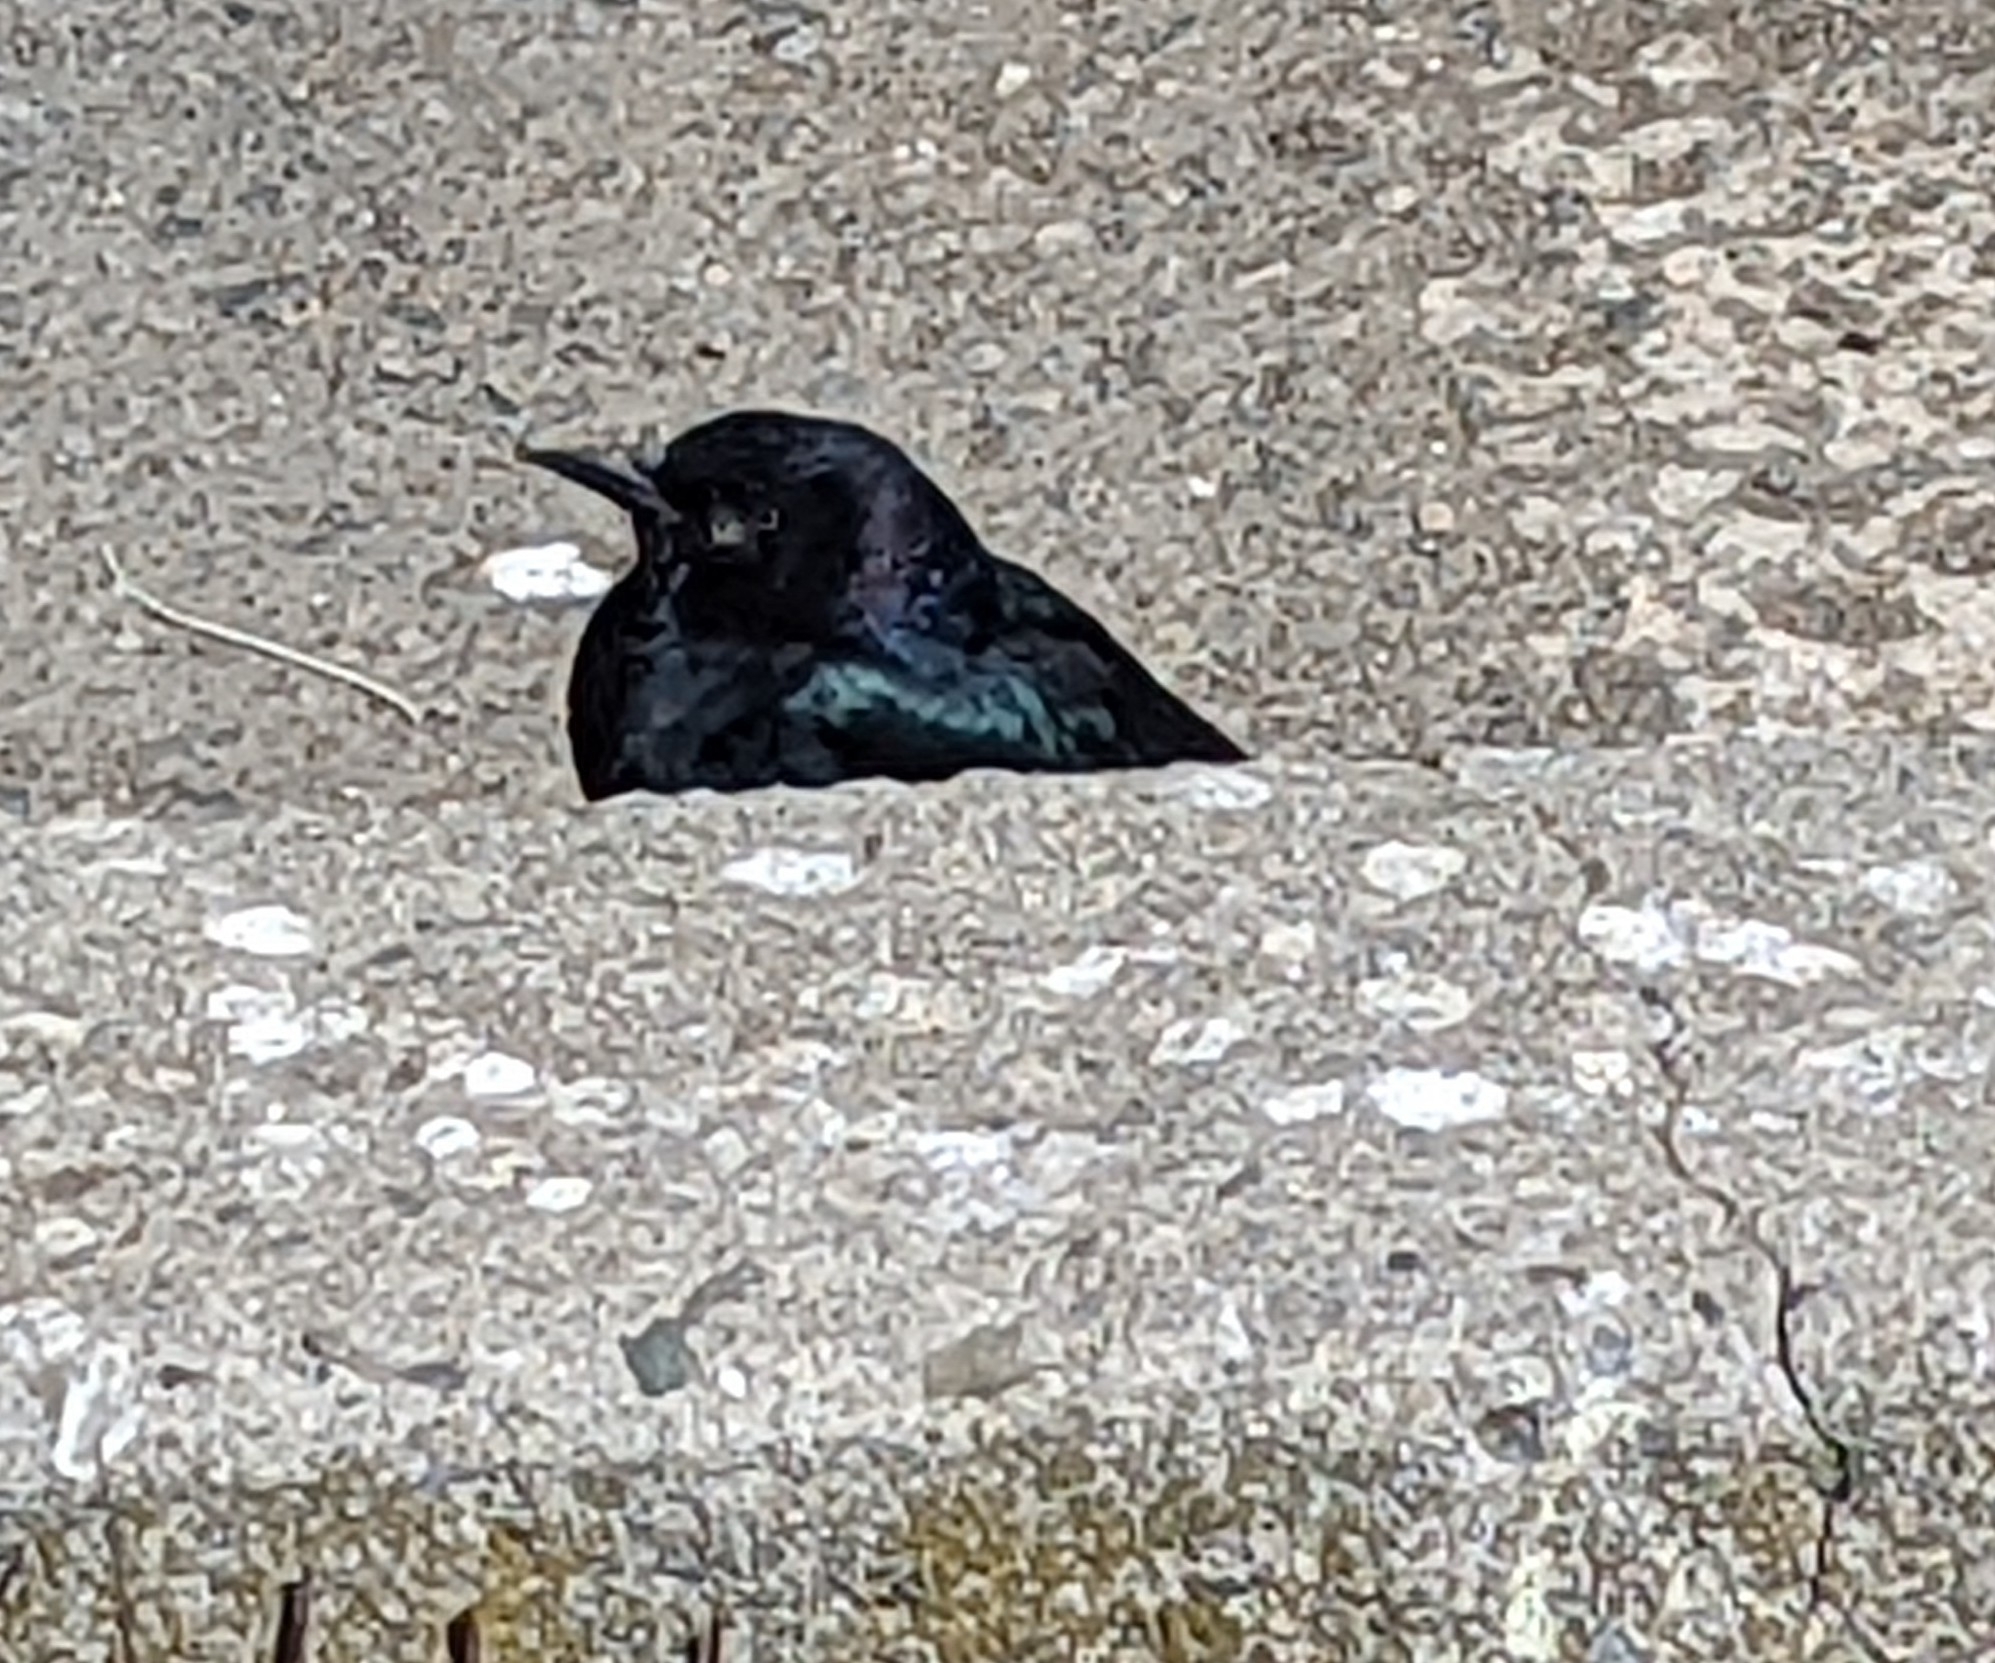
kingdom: Animalia
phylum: Chordata
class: Aves
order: Passeriformes
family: Icteridae
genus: Euphagus
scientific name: Euphagus cyanocephalus
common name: Brewer's blackbird
